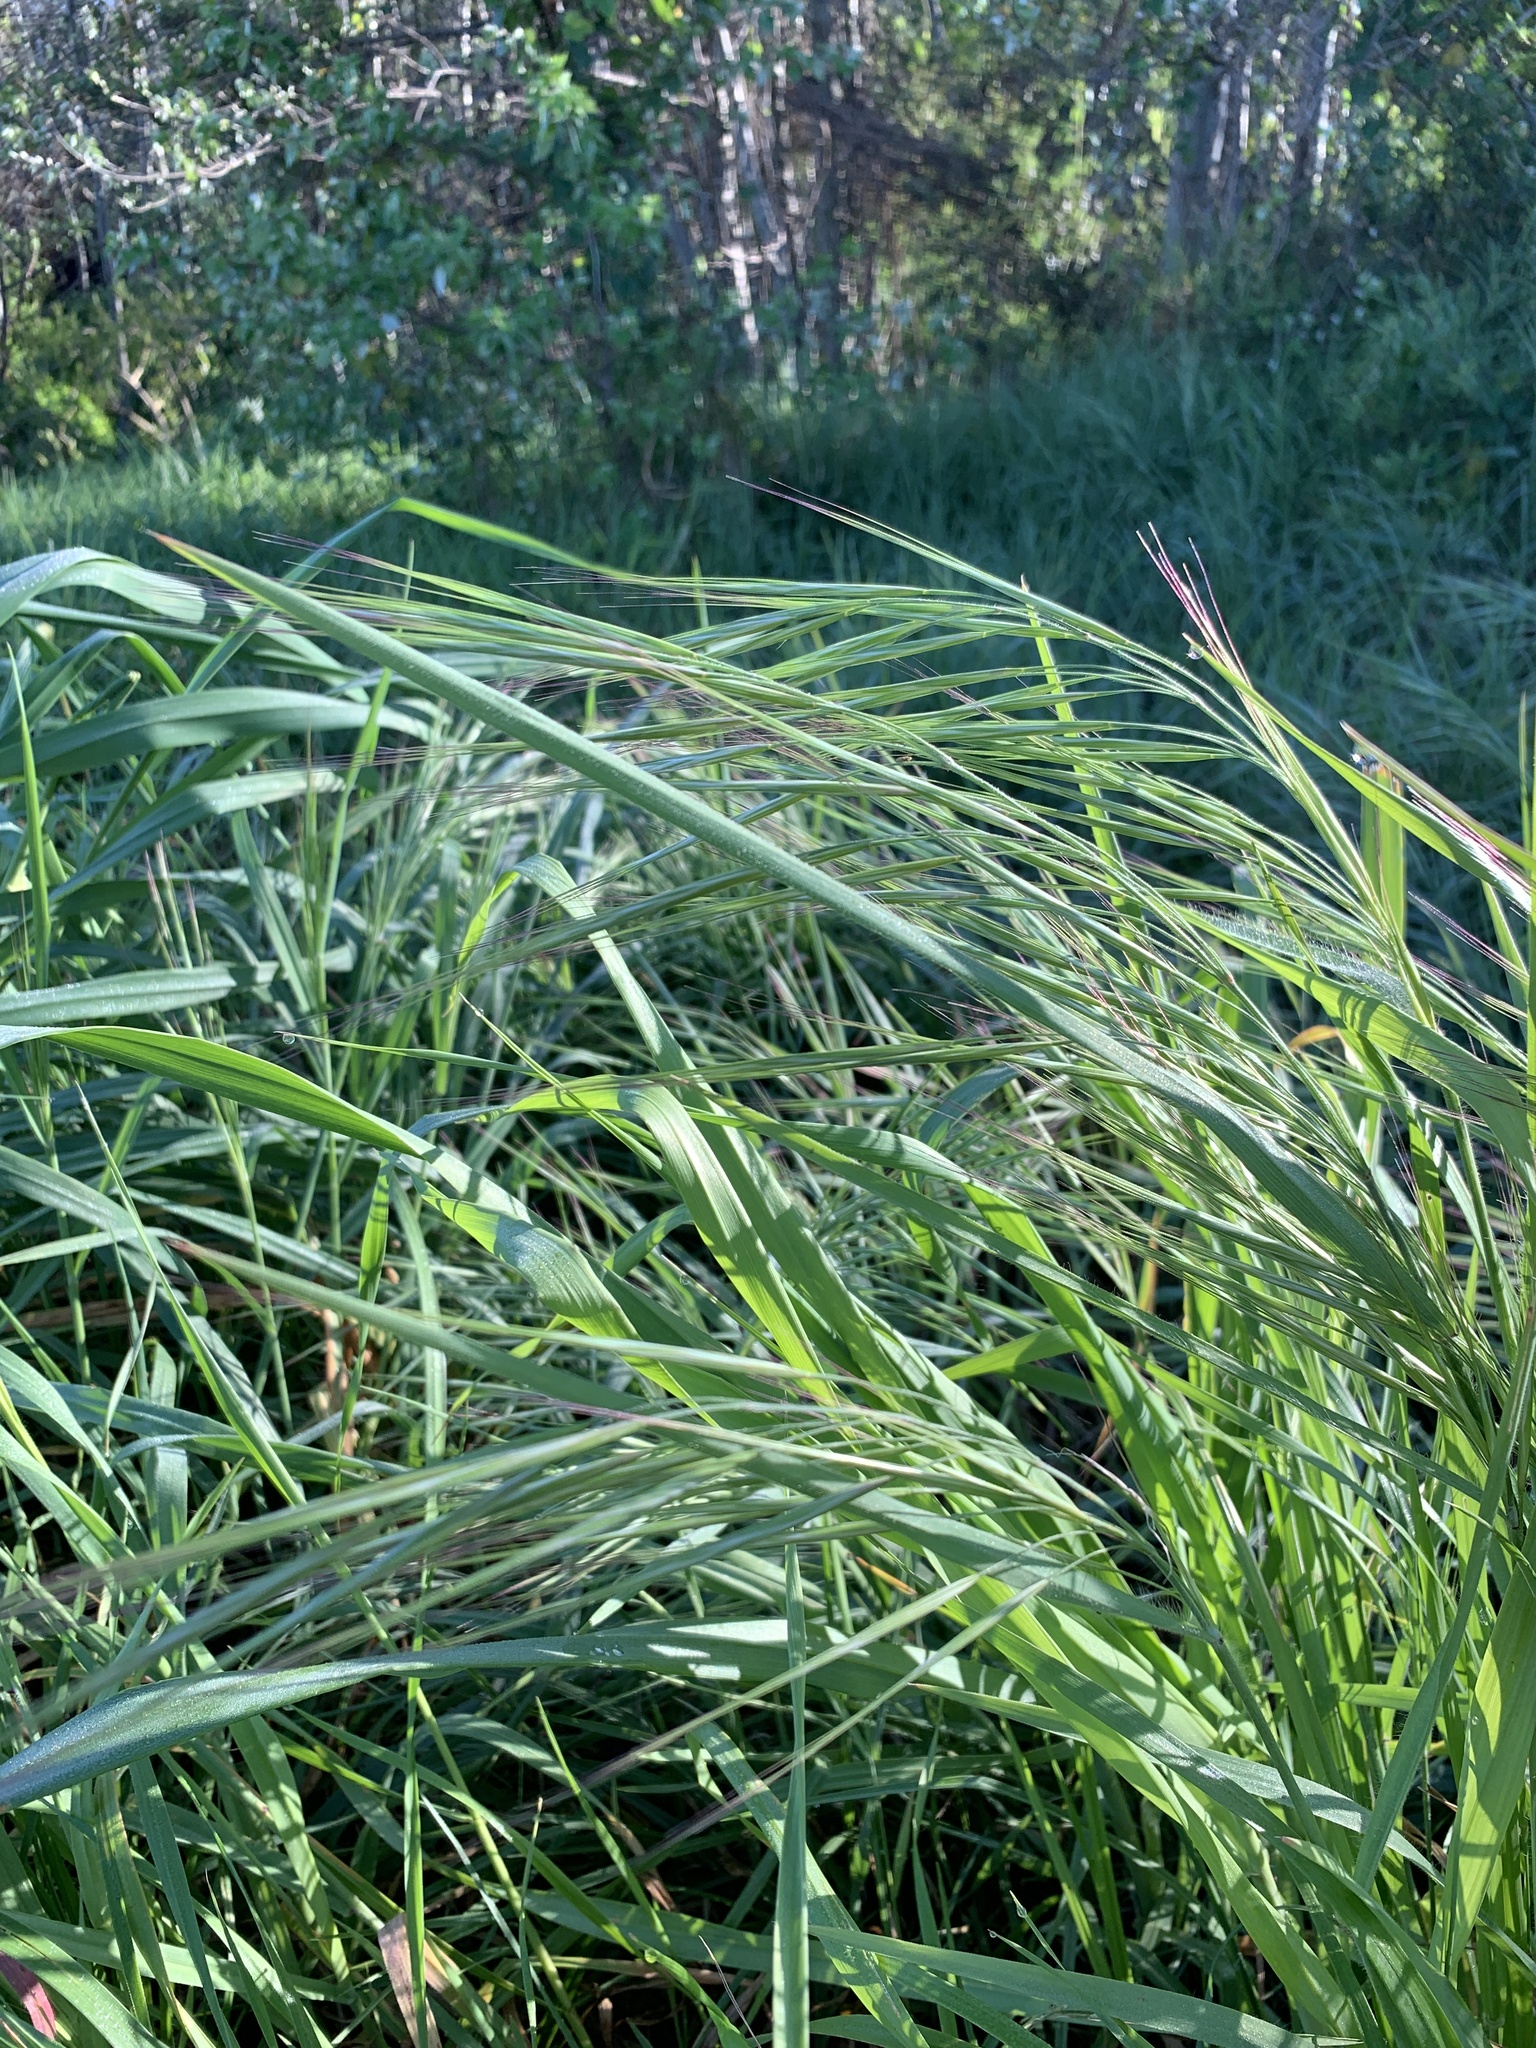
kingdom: Plantae
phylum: Tracheophyta
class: Liliopsida
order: Poales
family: Poaceae
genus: Bromus
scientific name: Bromus diandrus
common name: Ripgut brome
